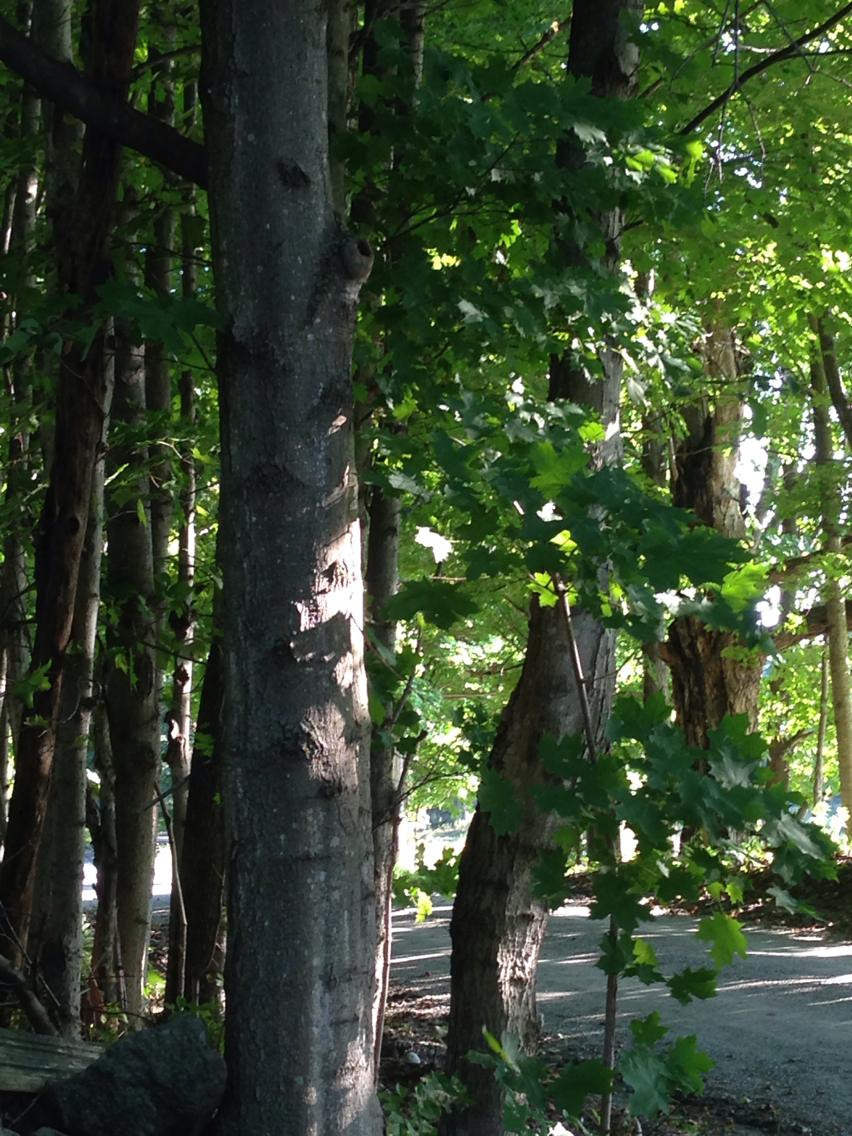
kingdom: Plantae
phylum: Tracheophyta
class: Magnoliopsida
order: Sapindales
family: Sapindaceae
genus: Acer
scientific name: Acer saccharum
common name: Sugar maple
